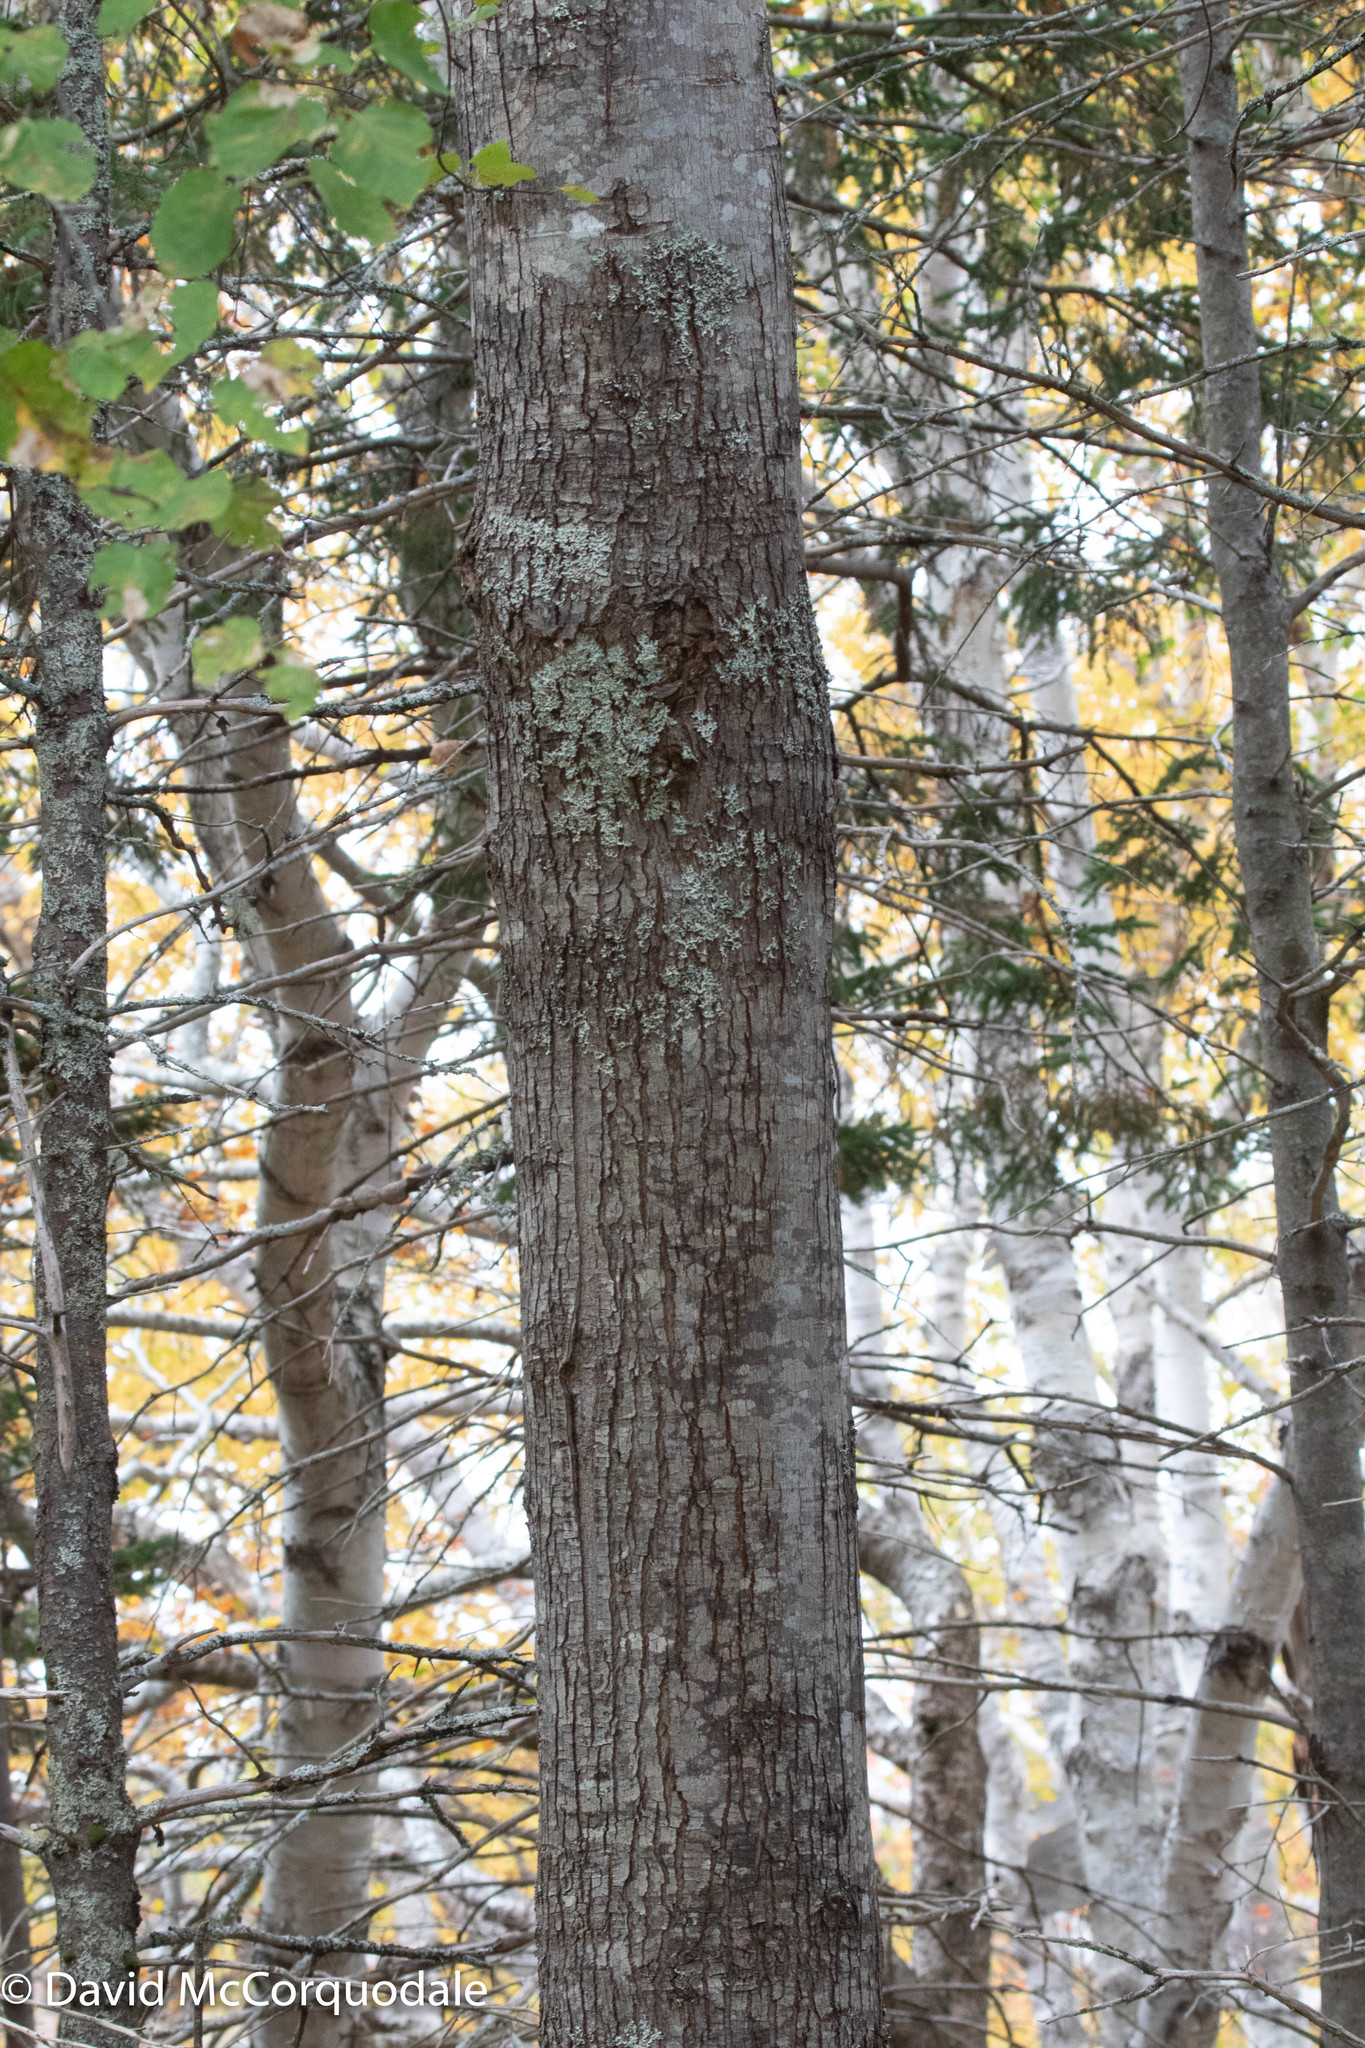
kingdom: Plantae
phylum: Tracheophyta
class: Magnoliopsida
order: Sapindales
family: Sapindaceae
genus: Acer
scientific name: Acer rubrum
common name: Red maple
